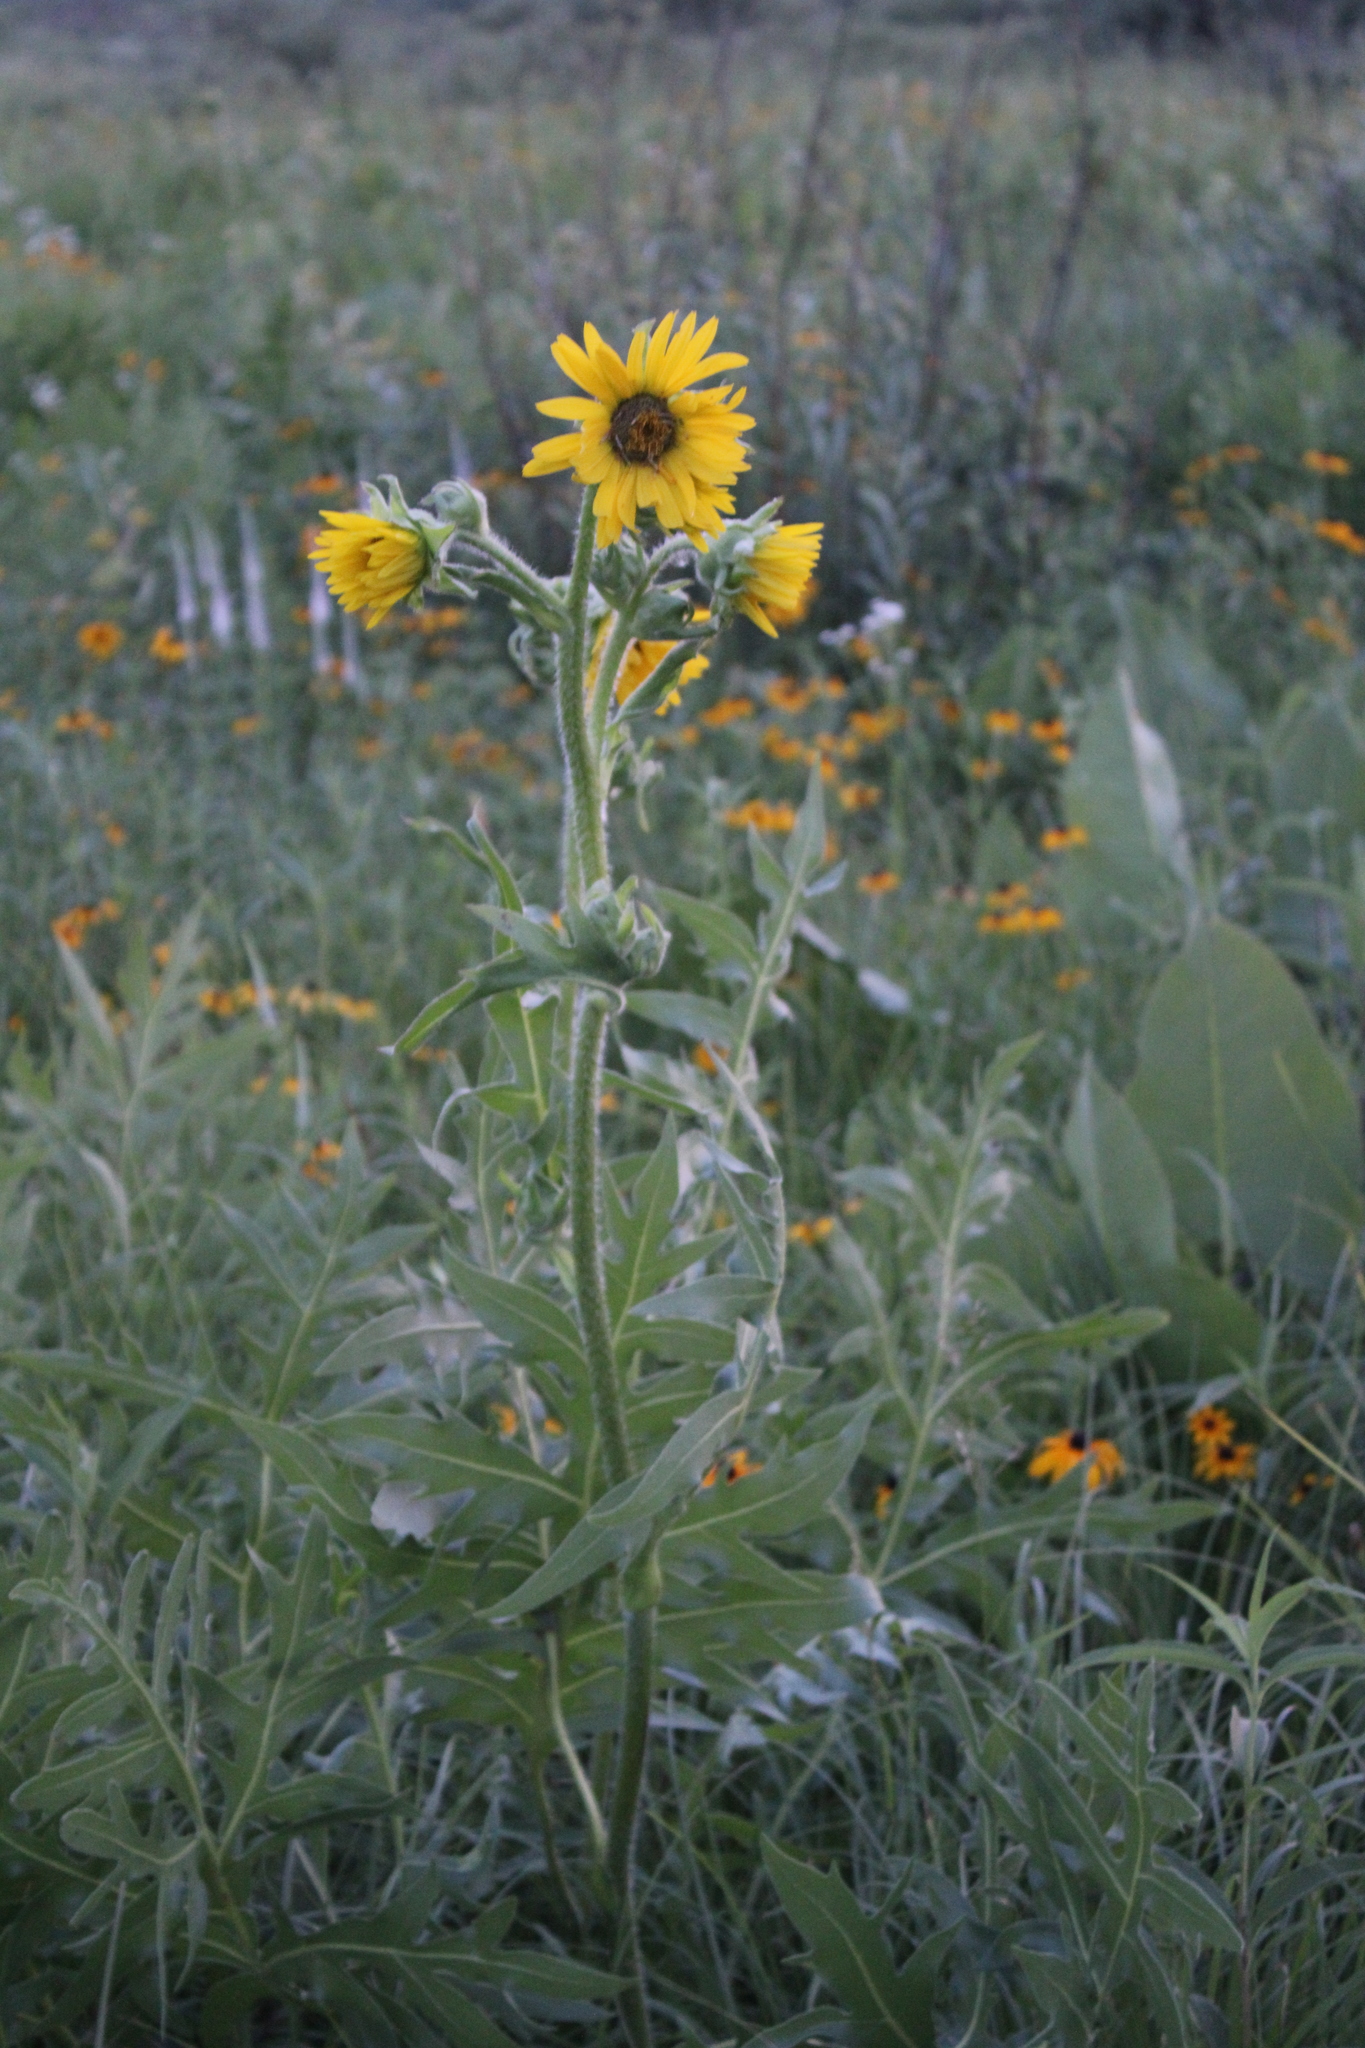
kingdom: Plantae
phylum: Tracheophyta
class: Magnoliopsida
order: Asterales
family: Asteraceae
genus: Silphium
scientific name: Silphium laciniatum
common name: Polarplant
